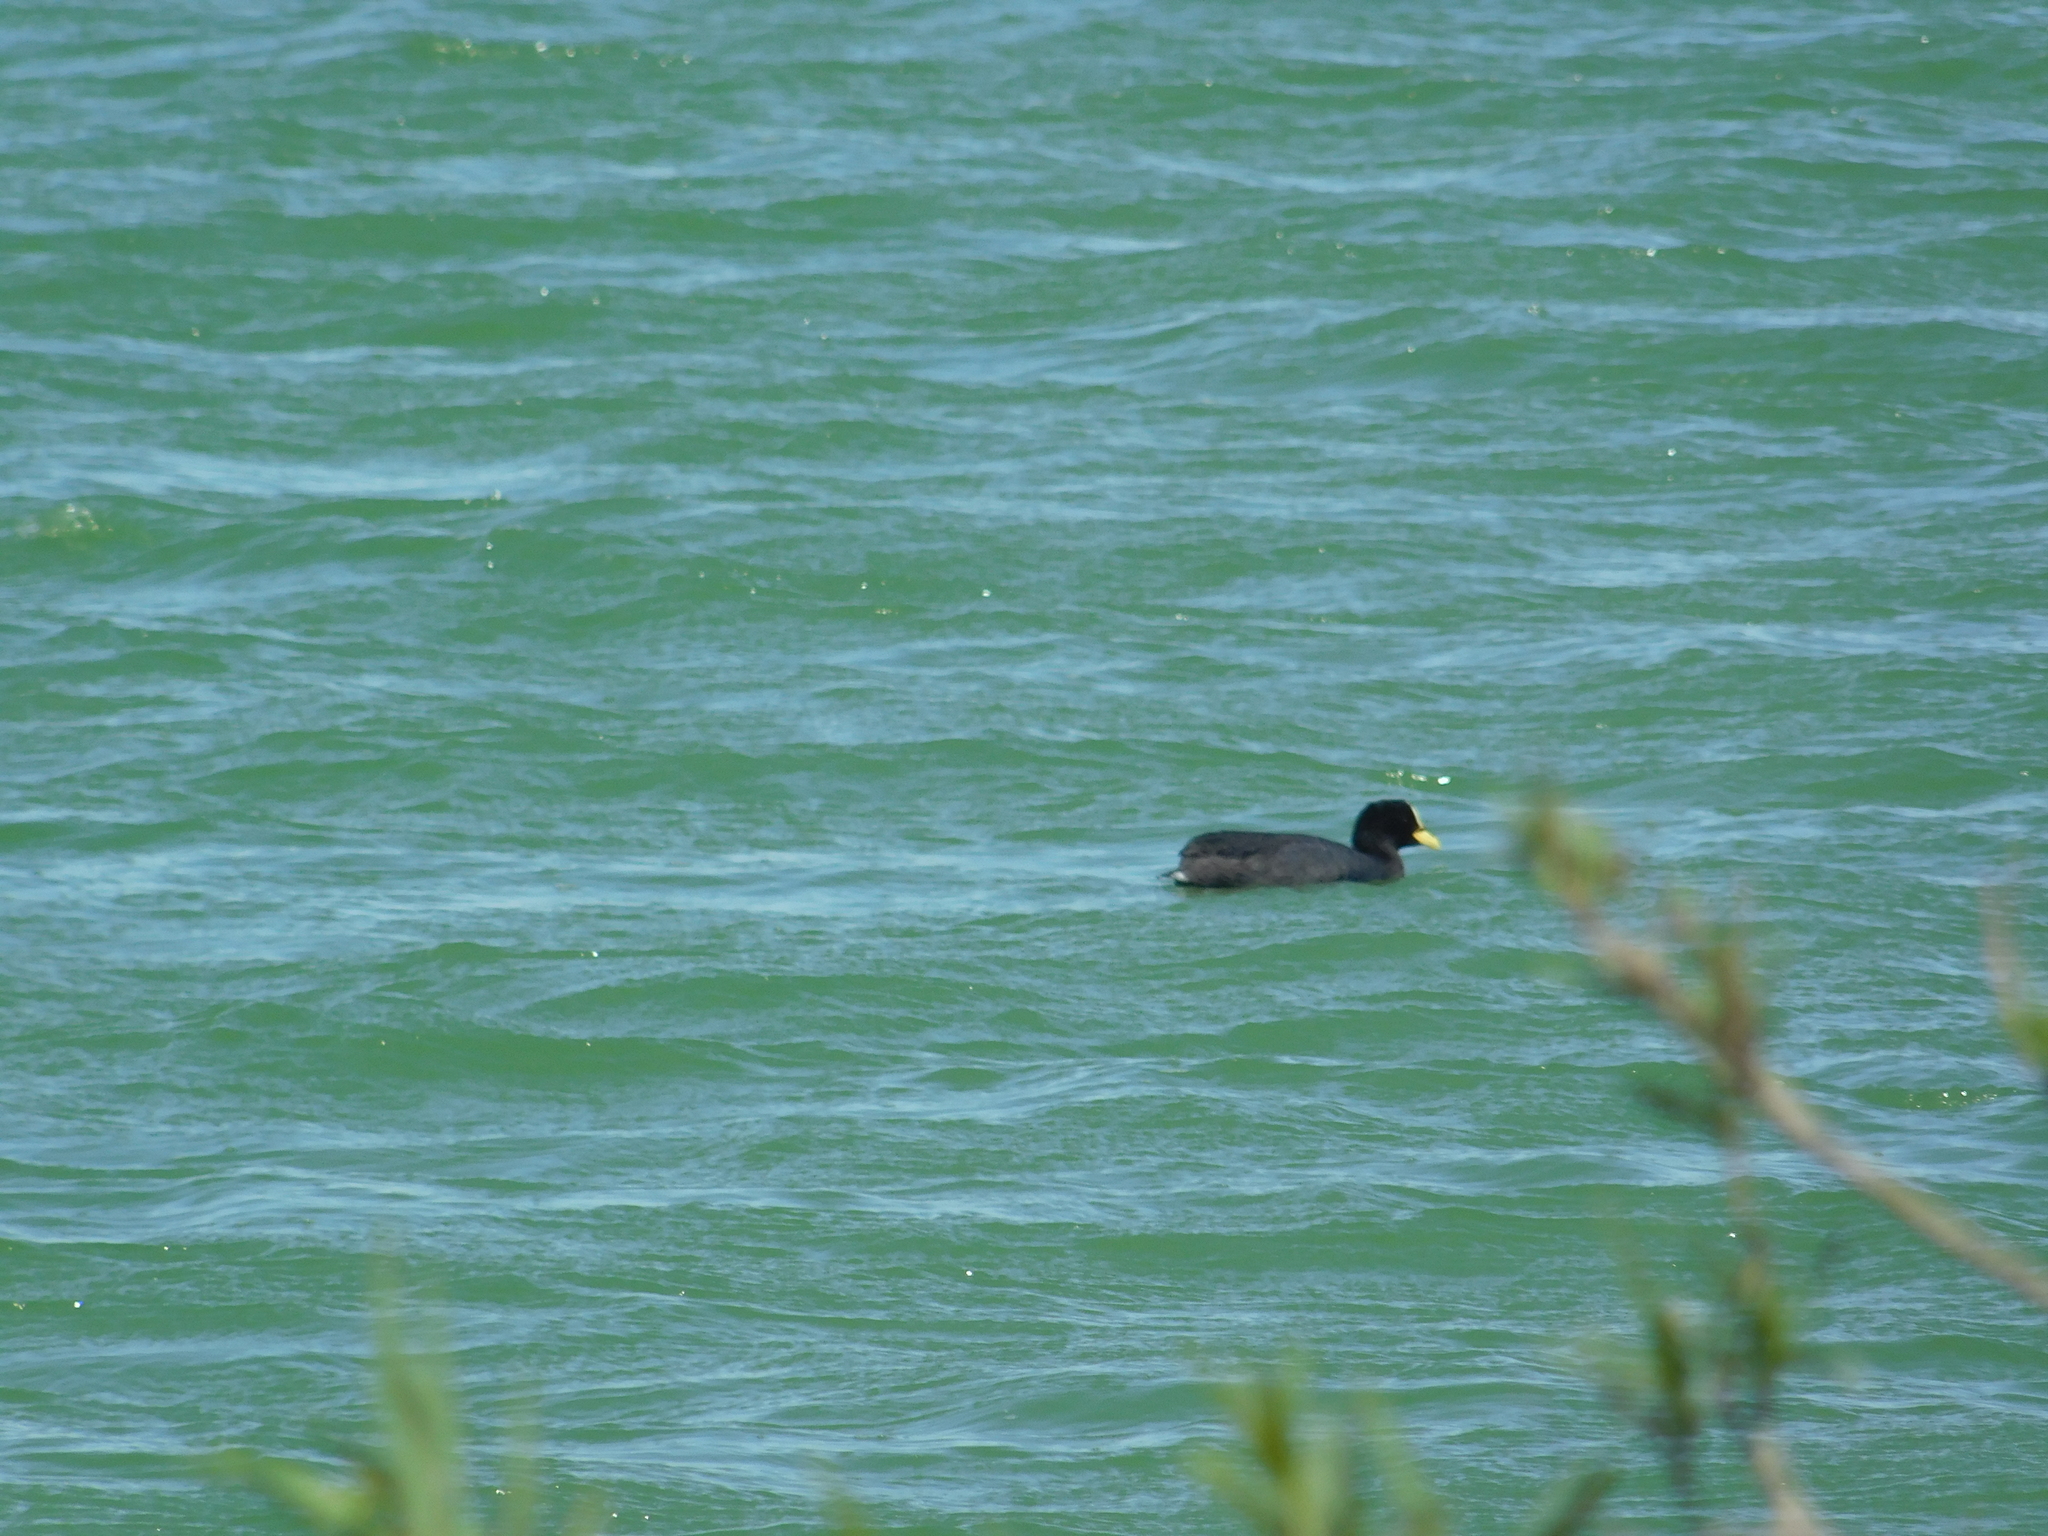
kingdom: Animalia
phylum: Chordata
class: Aves
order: Gruiformes
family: Rallidae
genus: Fulica
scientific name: Fulica armillata
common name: Red-gartered coot
